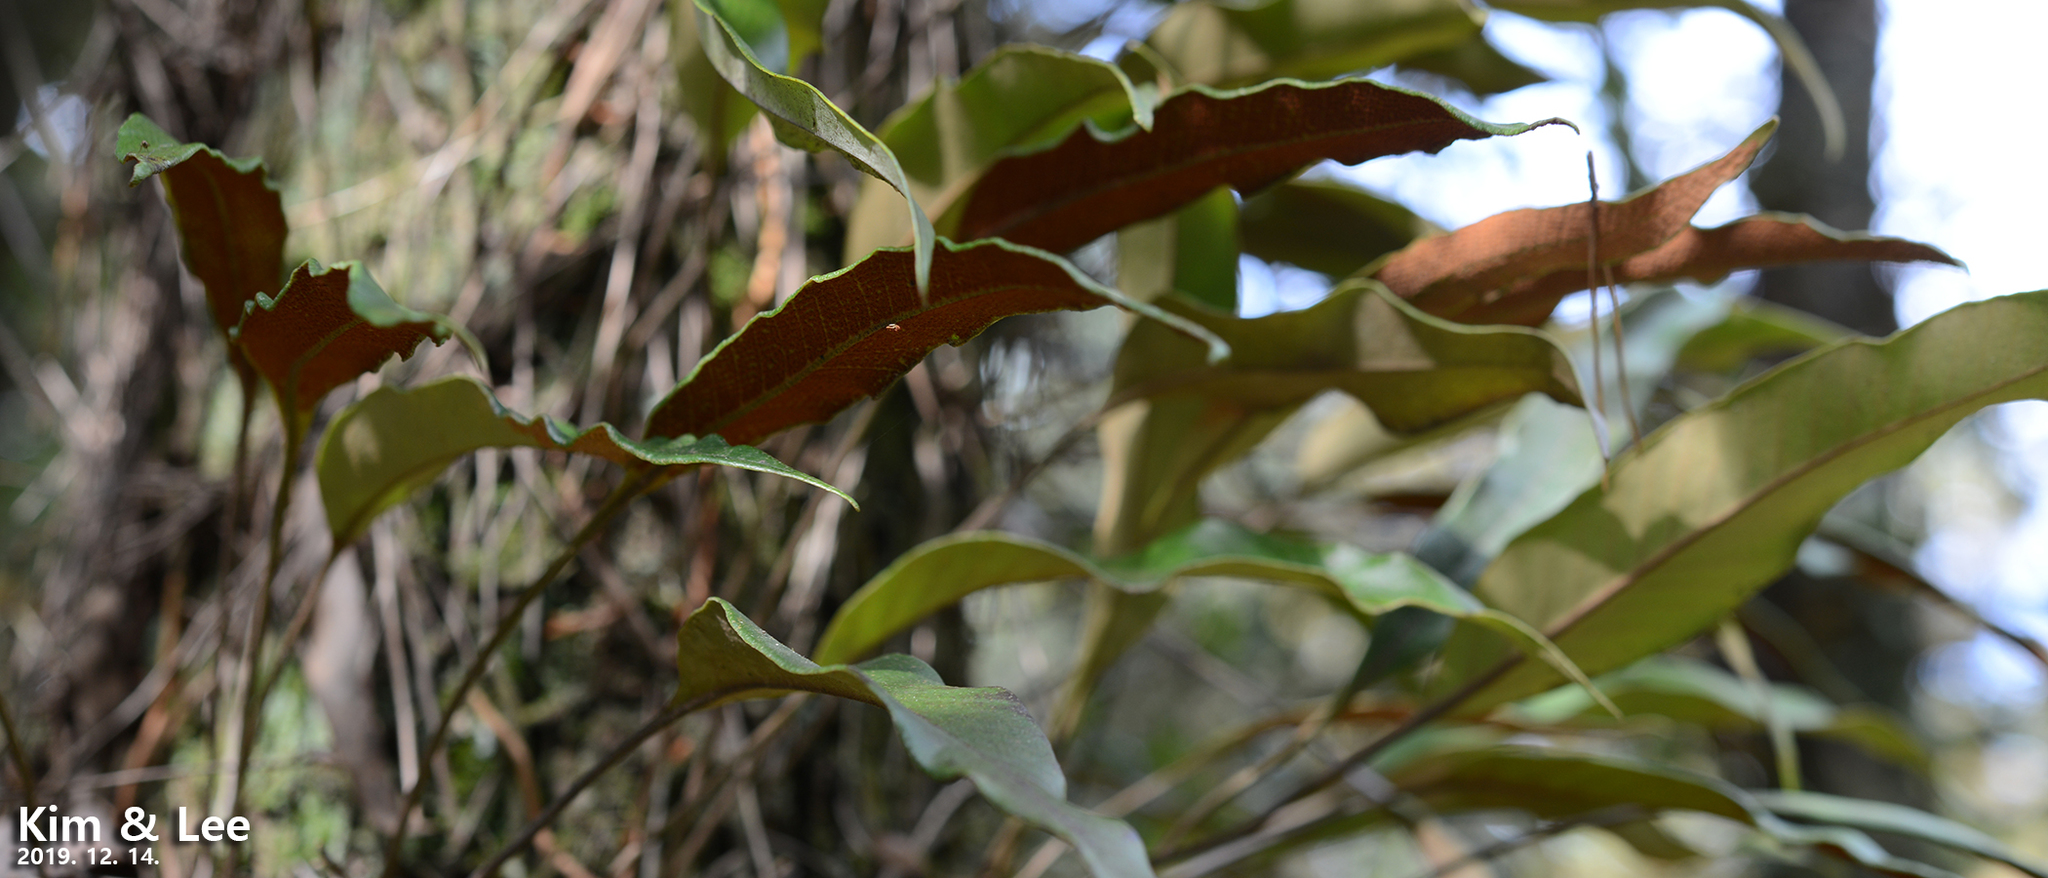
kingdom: Plantae
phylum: Tracheophyta
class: Polypodiopsida
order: Polypodiales
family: Polypodiaceae
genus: Pyrrosia
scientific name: Pyrrosia lingua
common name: Felt fern
